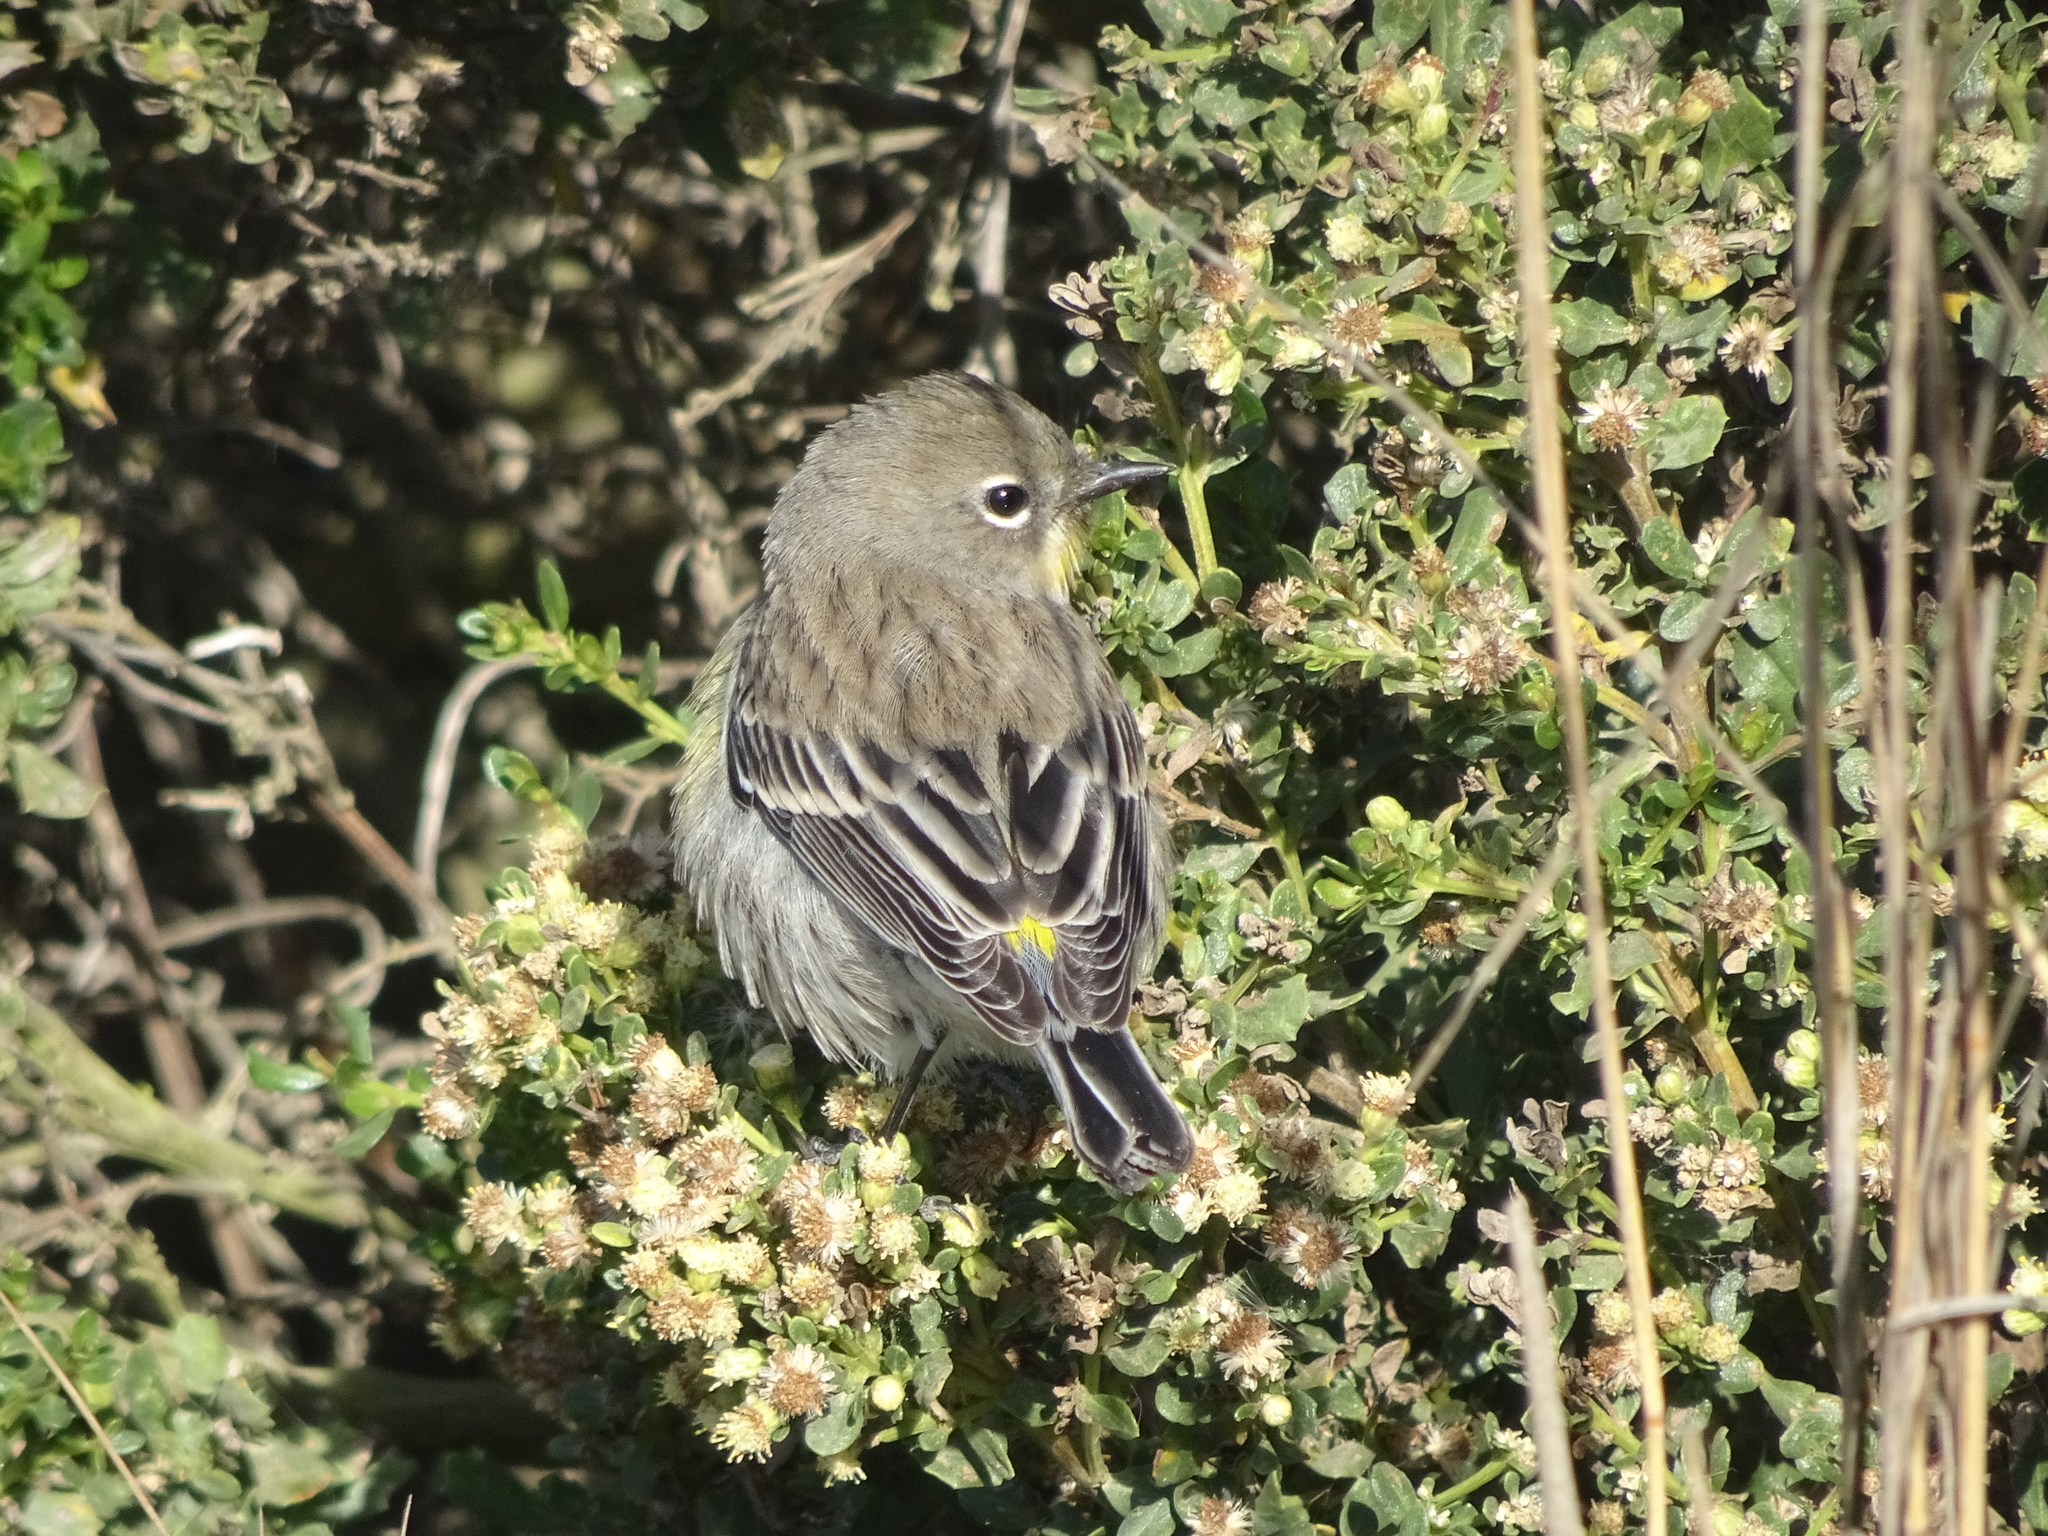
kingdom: Animalia
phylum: Chordata
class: Aves
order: Passeriformes
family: Parulidae
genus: Setophaga
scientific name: Setophaga auduboni
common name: Audubon's warbler
